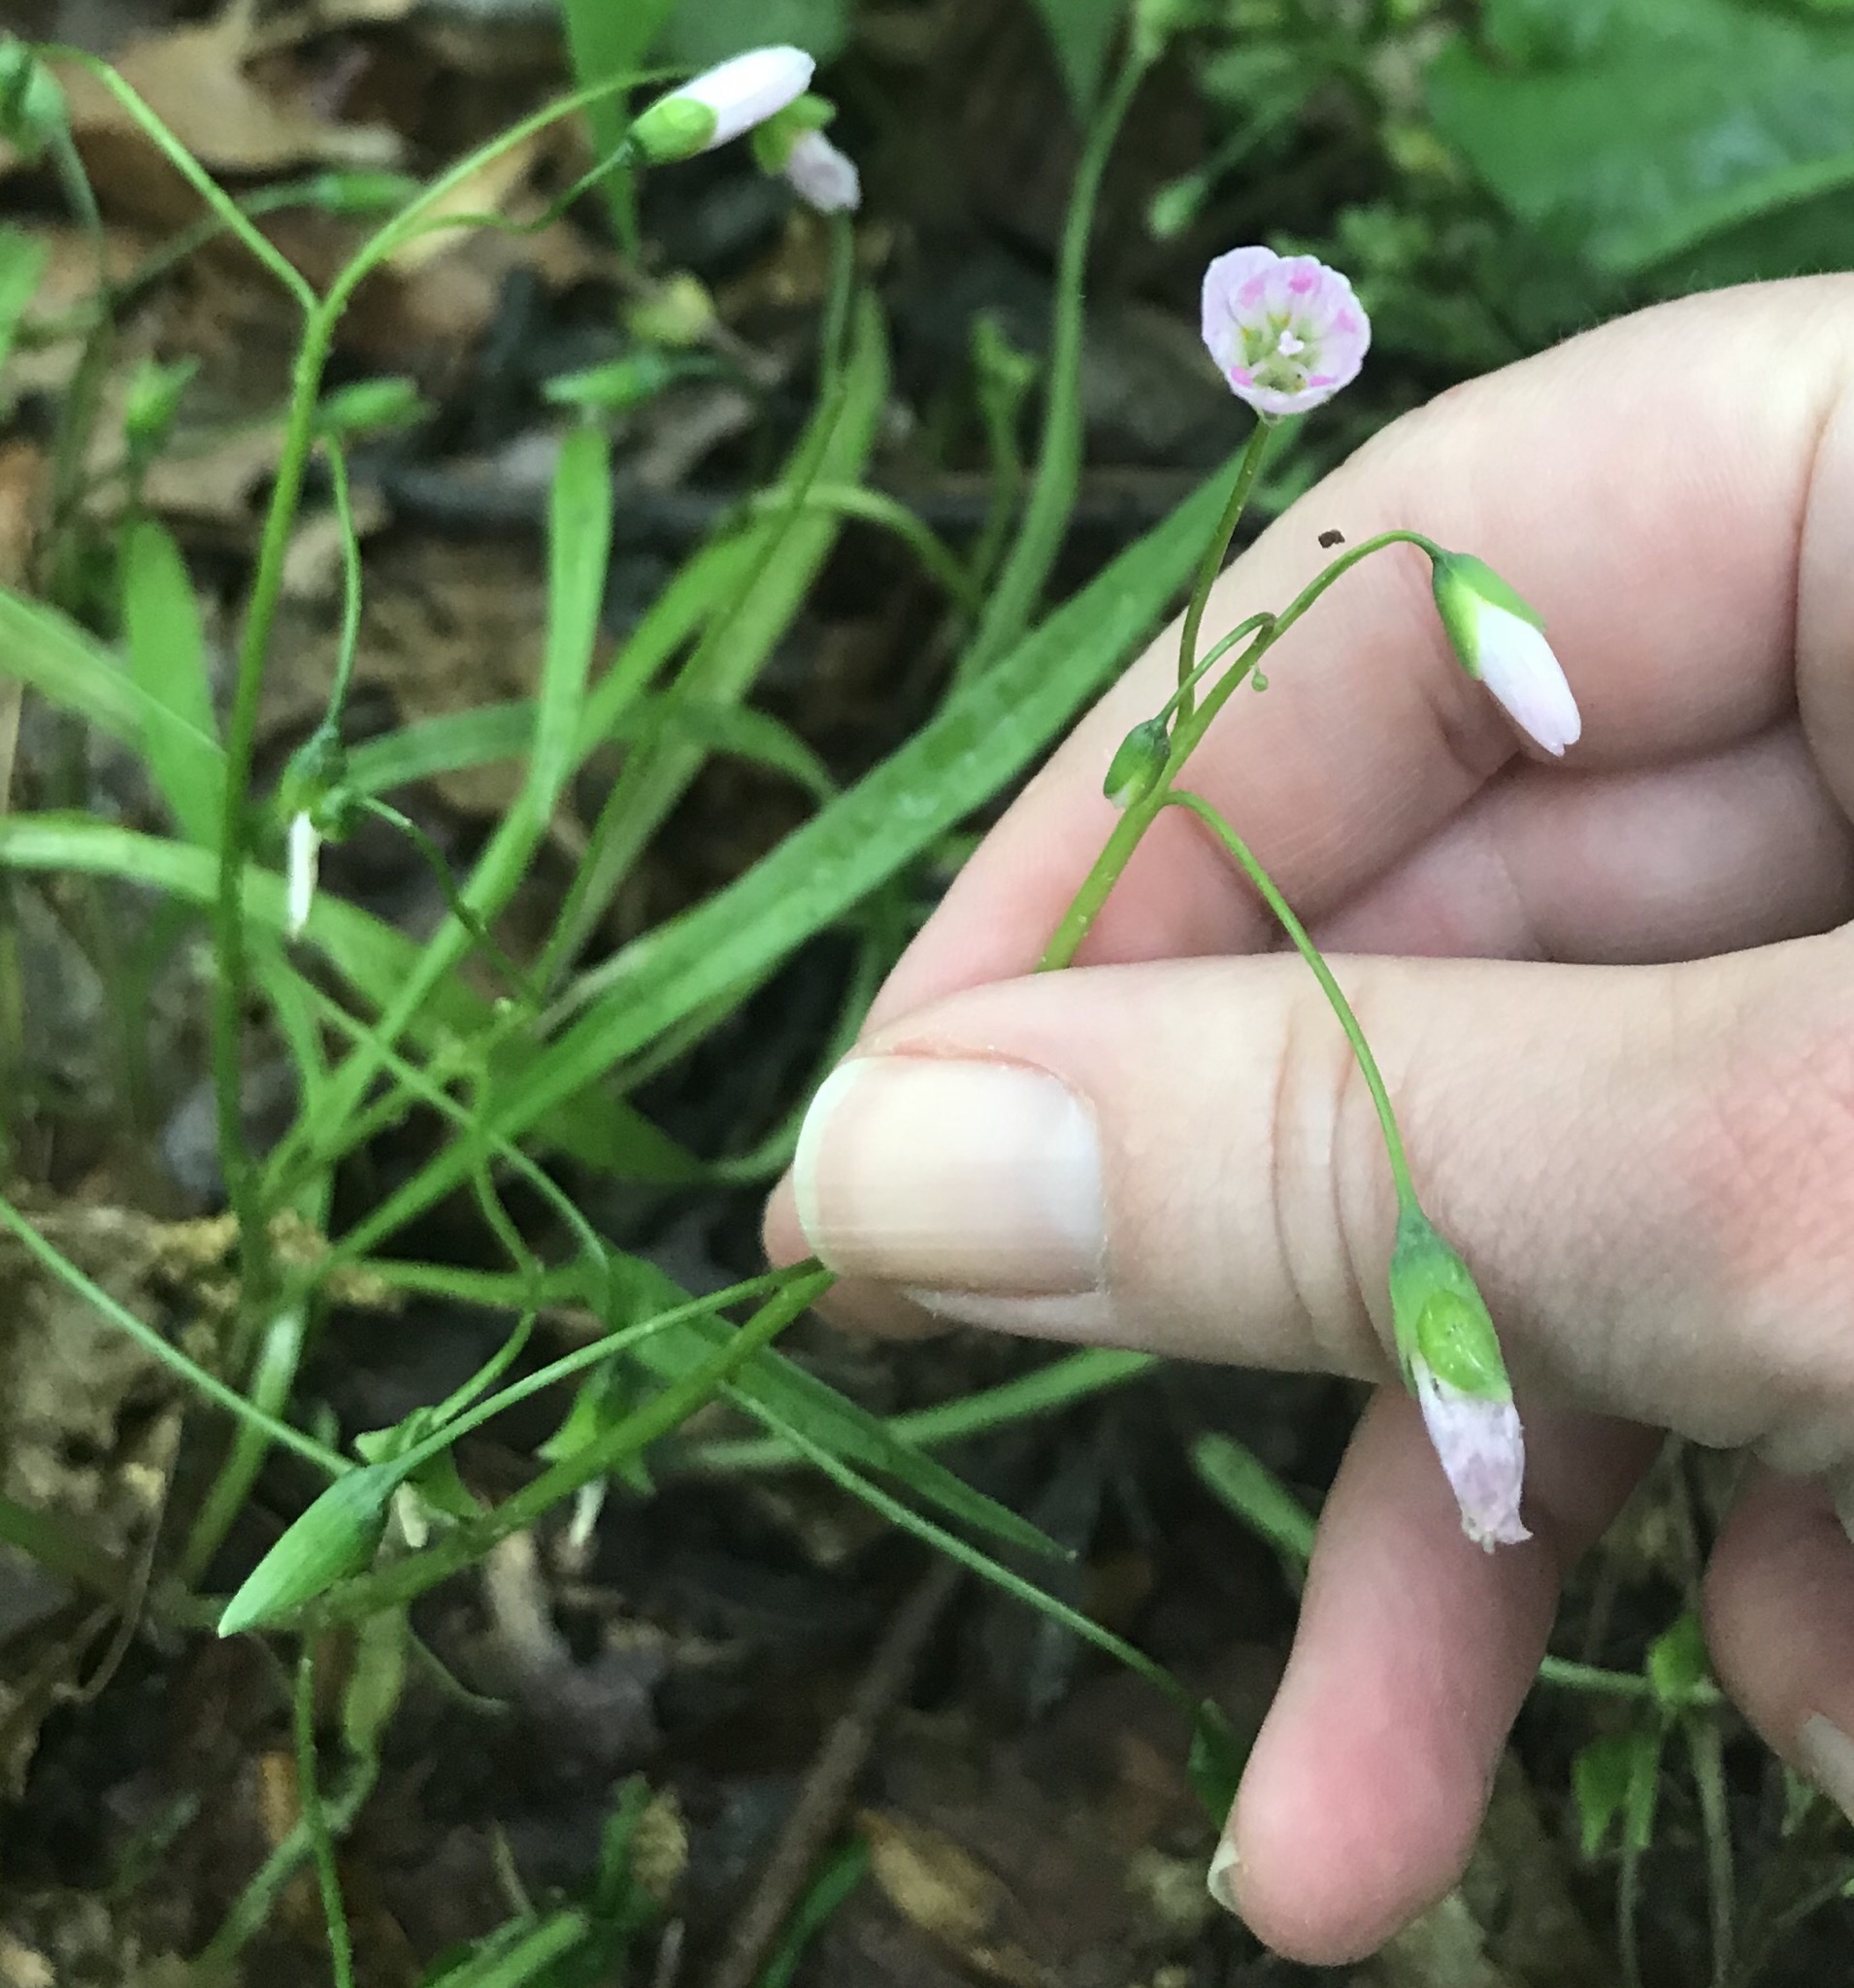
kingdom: Plantae
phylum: Tracheophyta
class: Magnoliopsida
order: Caryophyllales
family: Montiaceae
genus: Claytonia
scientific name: Claytonia virginica
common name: Virginia springbeauty
